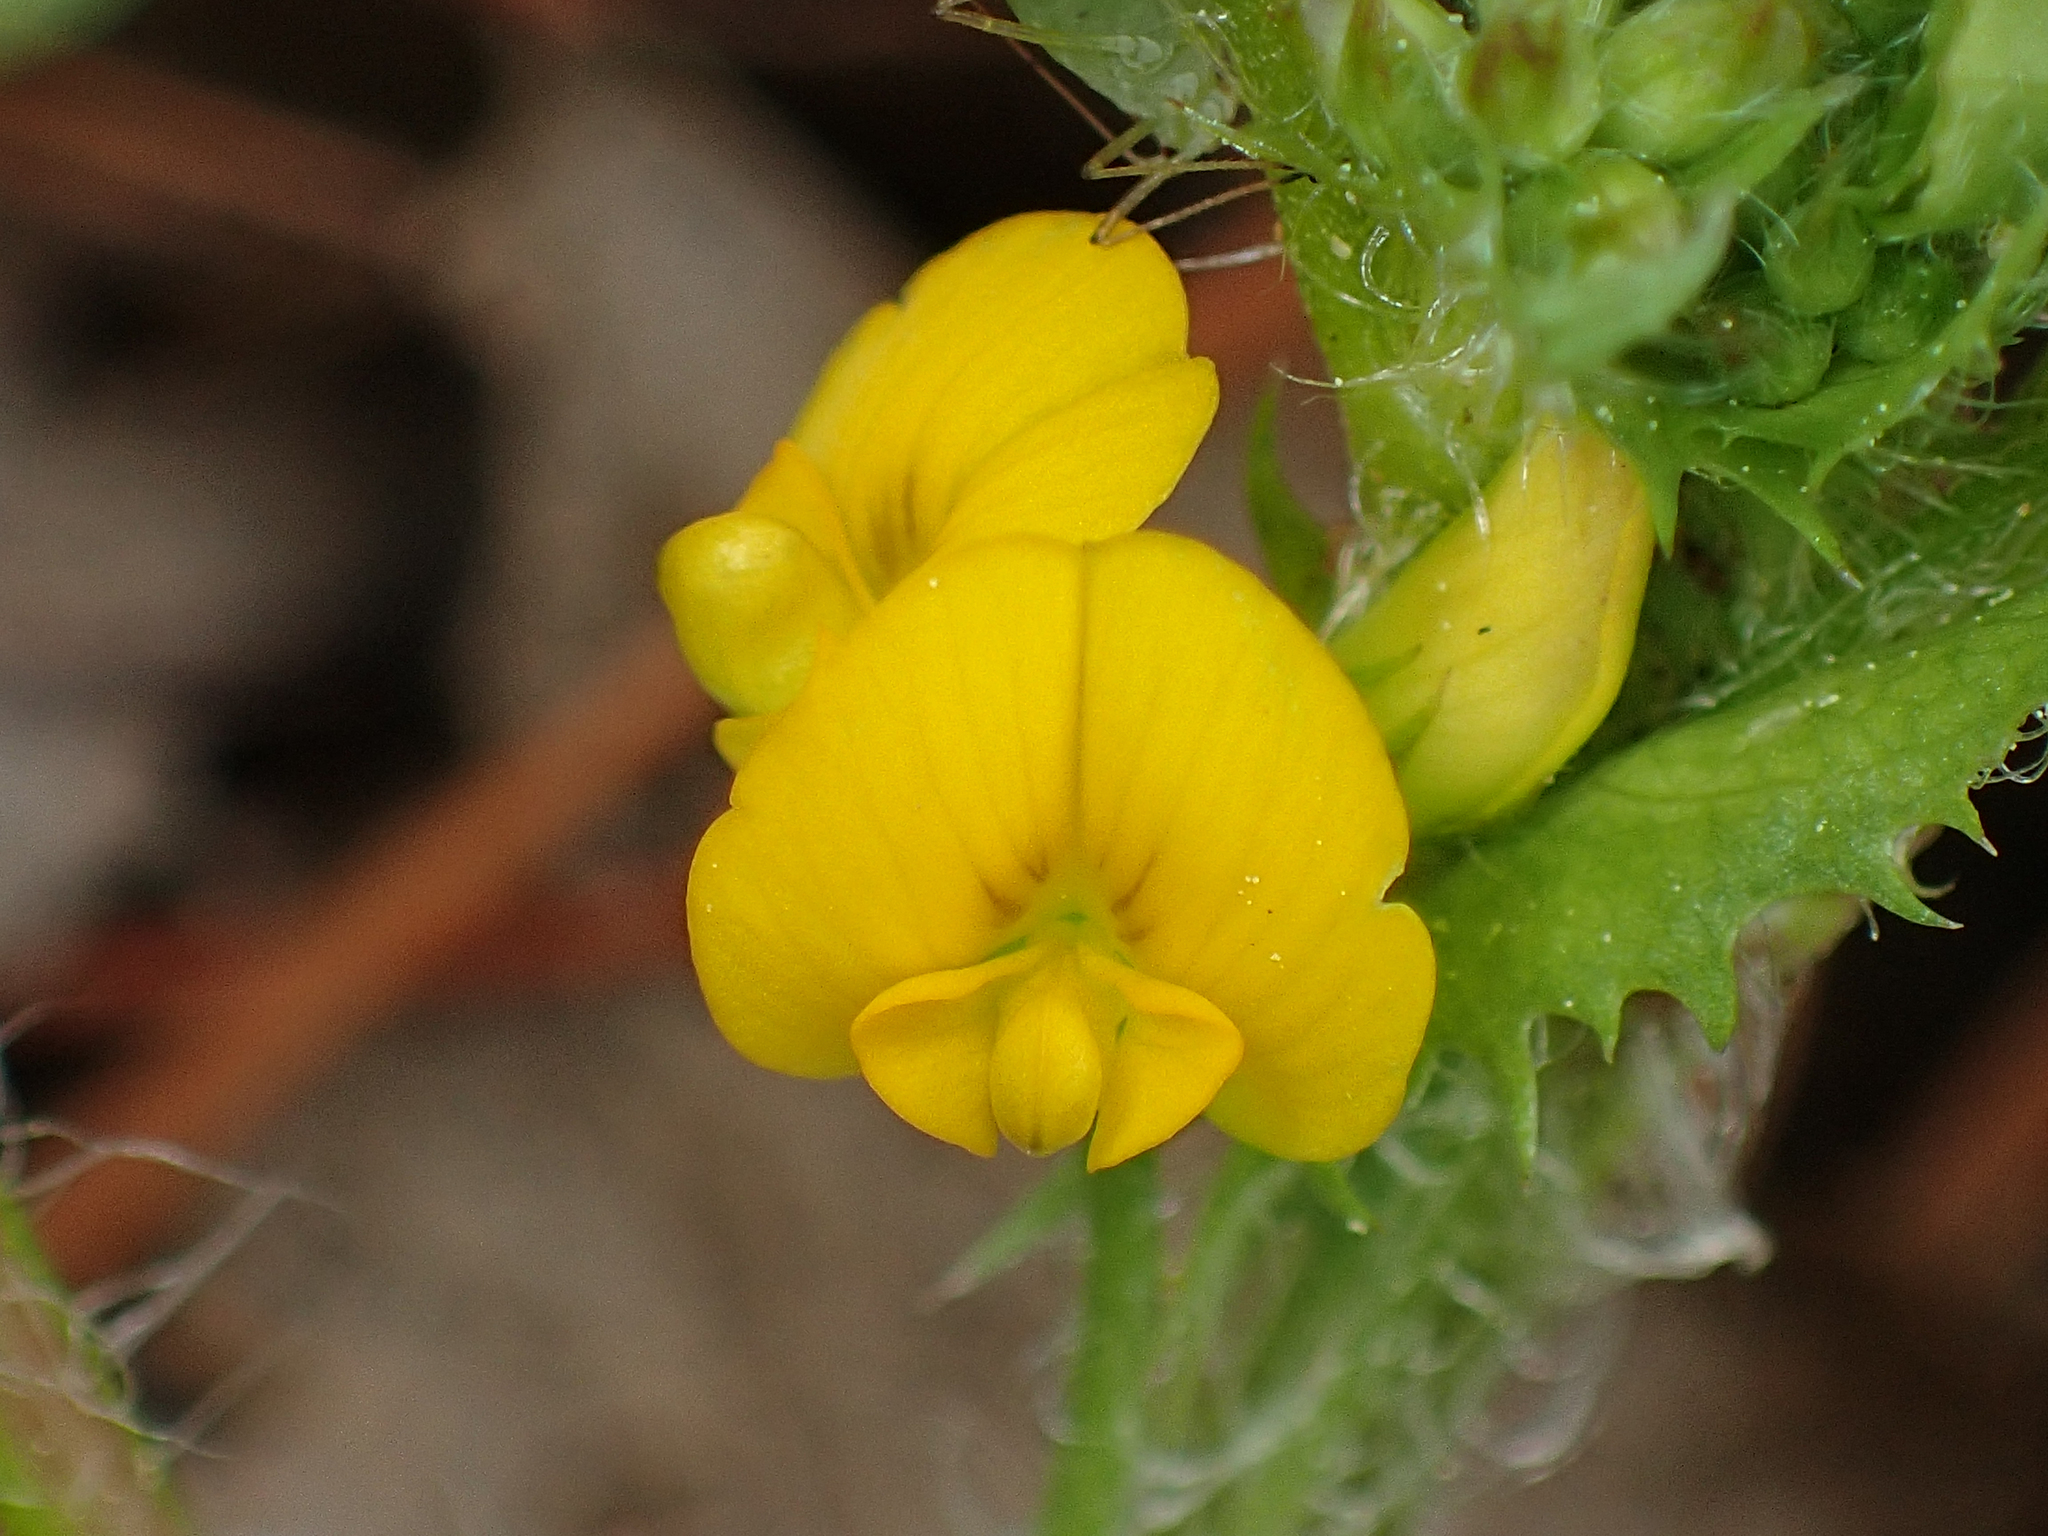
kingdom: Plantae
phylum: Tracheophyta
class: Magnoliopsida
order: Fabales
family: Fabaceae
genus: Medicago
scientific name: Medicago arabica
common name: Spotted medick
